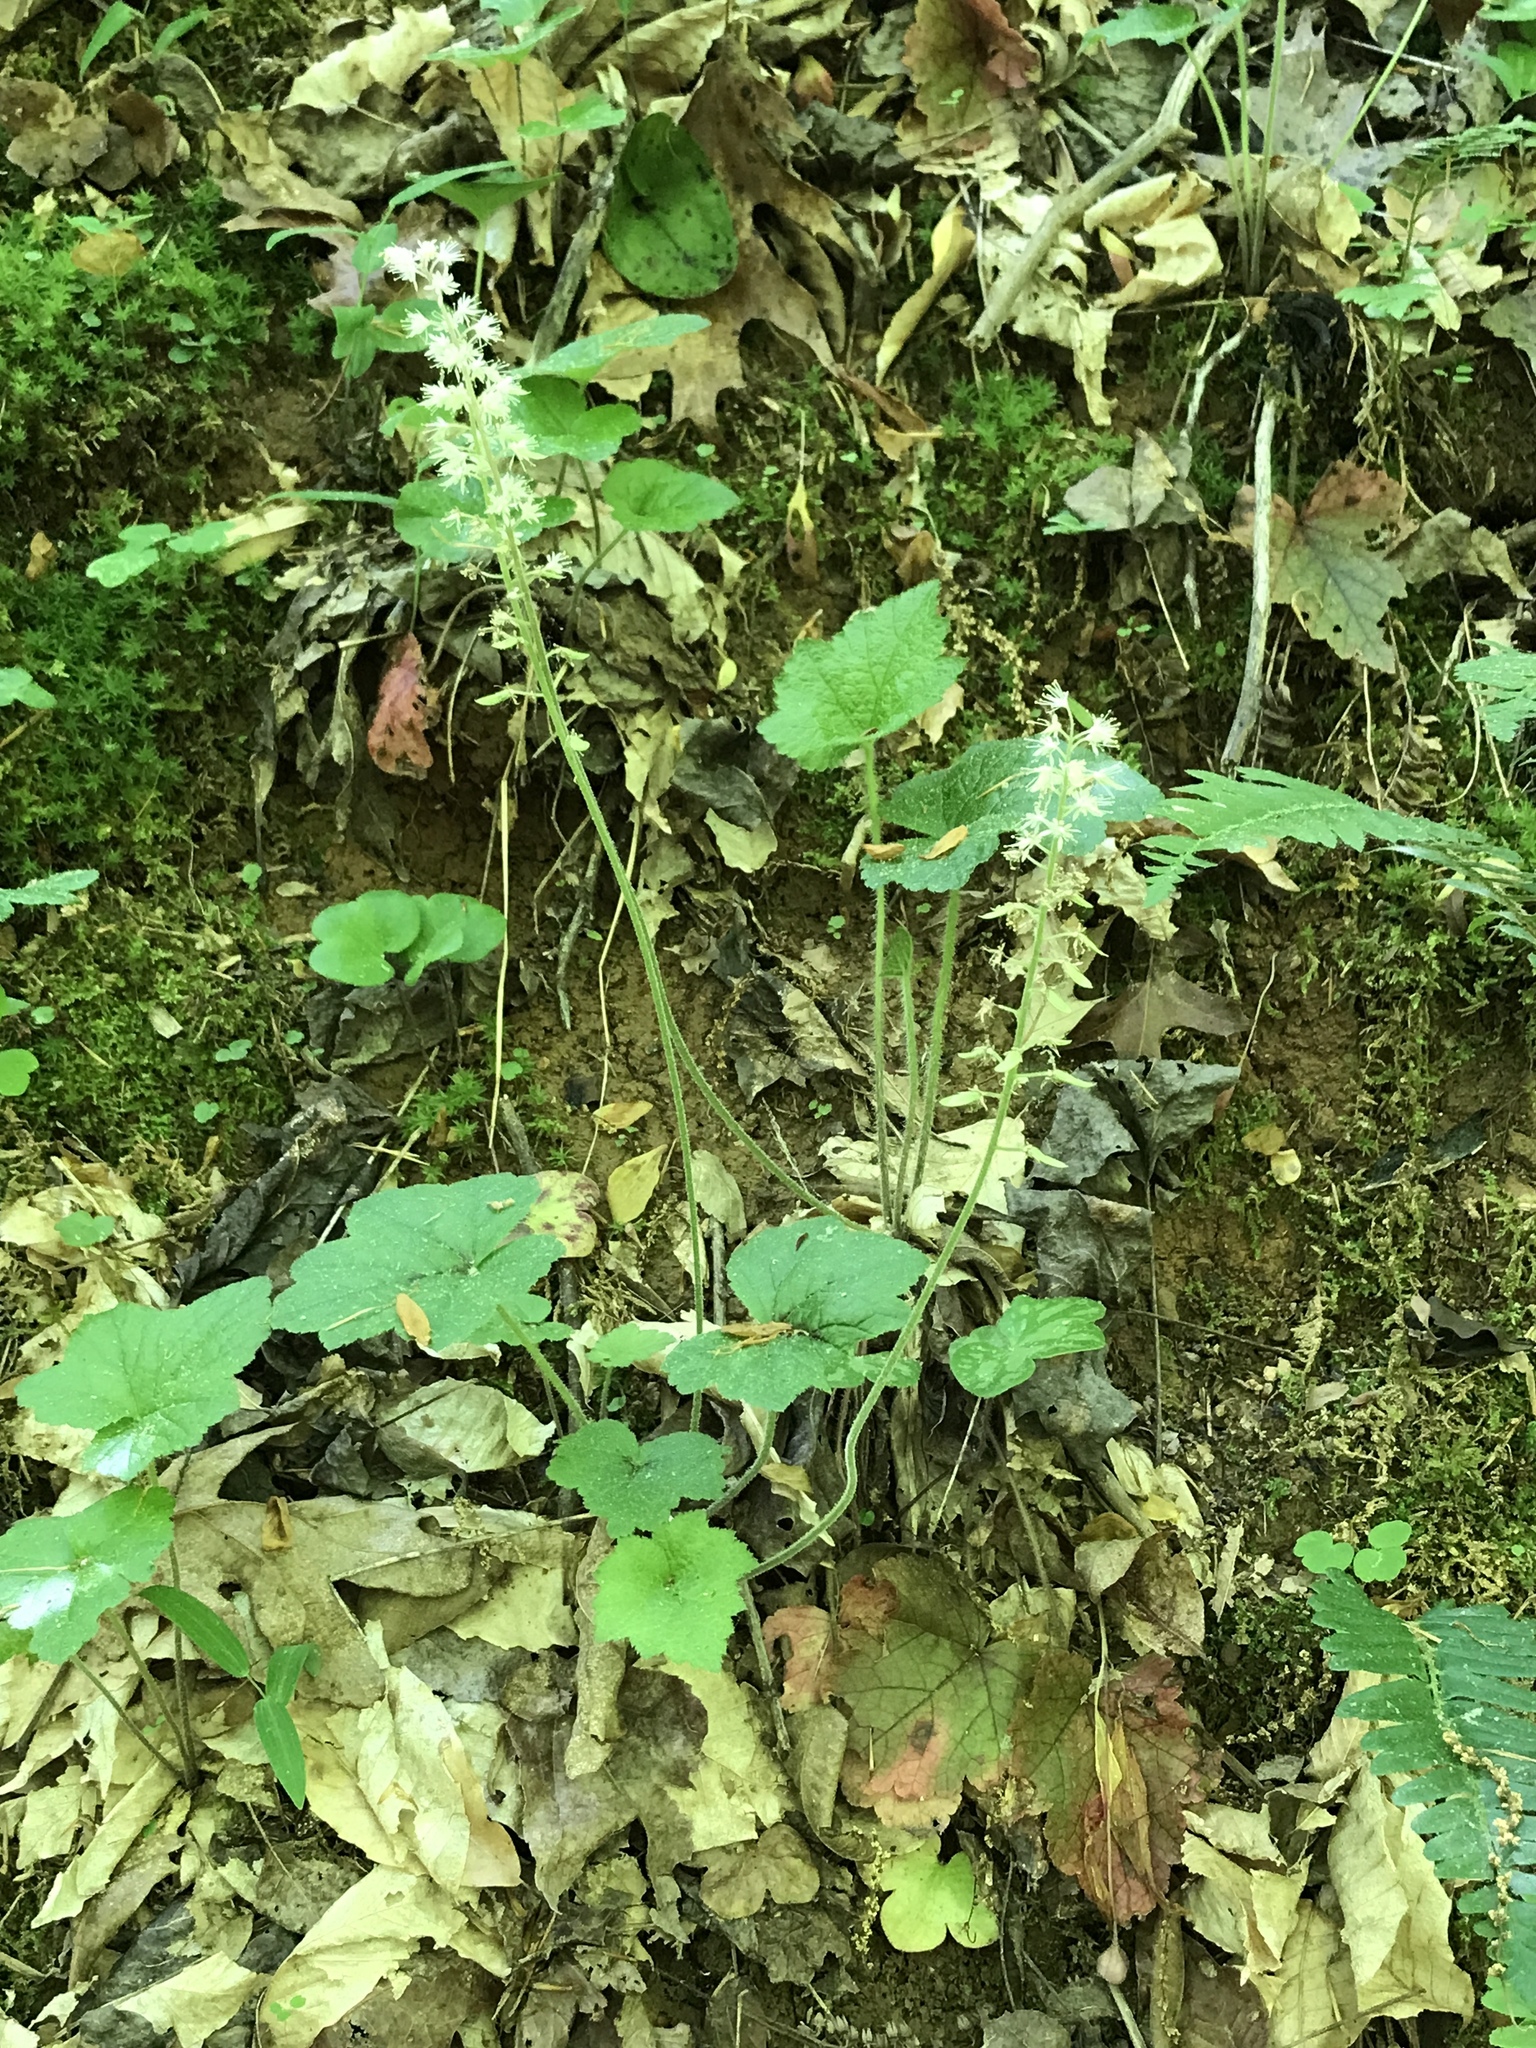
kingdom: Plantae
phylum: Tracheophyta
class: Magnoliopsida
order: Saxifragales
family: Saxifragaceae
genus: Tiarella
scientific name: Tiarella cordifolia
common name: Foamflower
